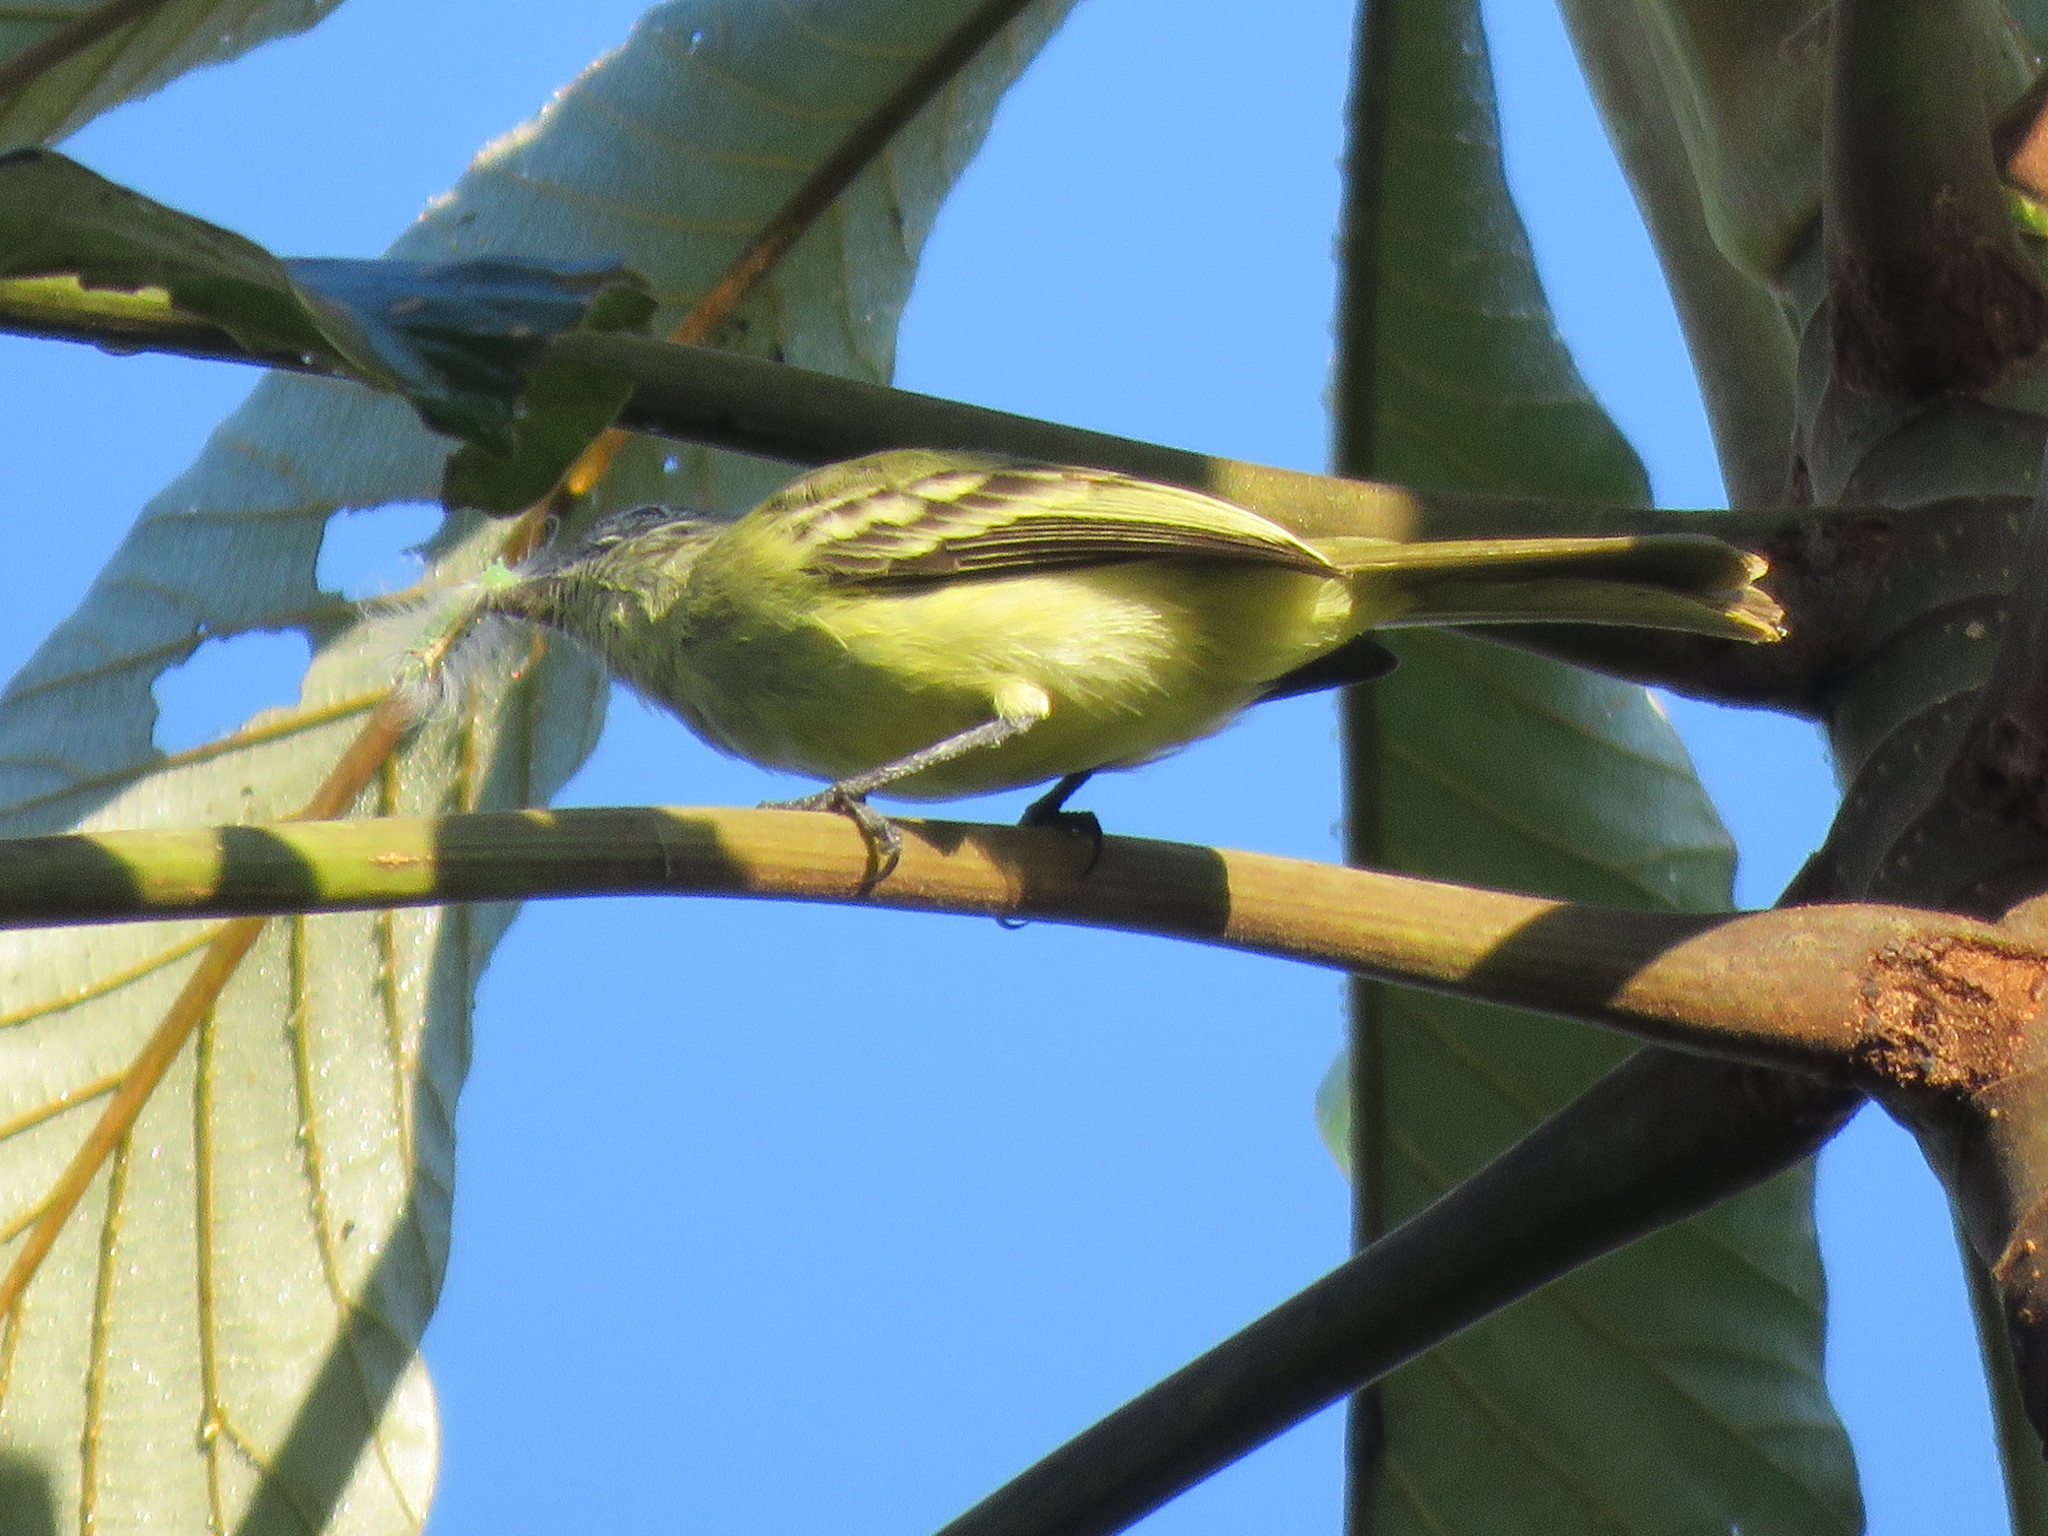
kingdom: Animalia
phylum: Chordata
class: Aves
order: Passeriformes
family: Tyrannidae
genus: Tolmomyias
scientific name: Tolmomyias sulphurescens
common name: Yellow-olive flycatcher
